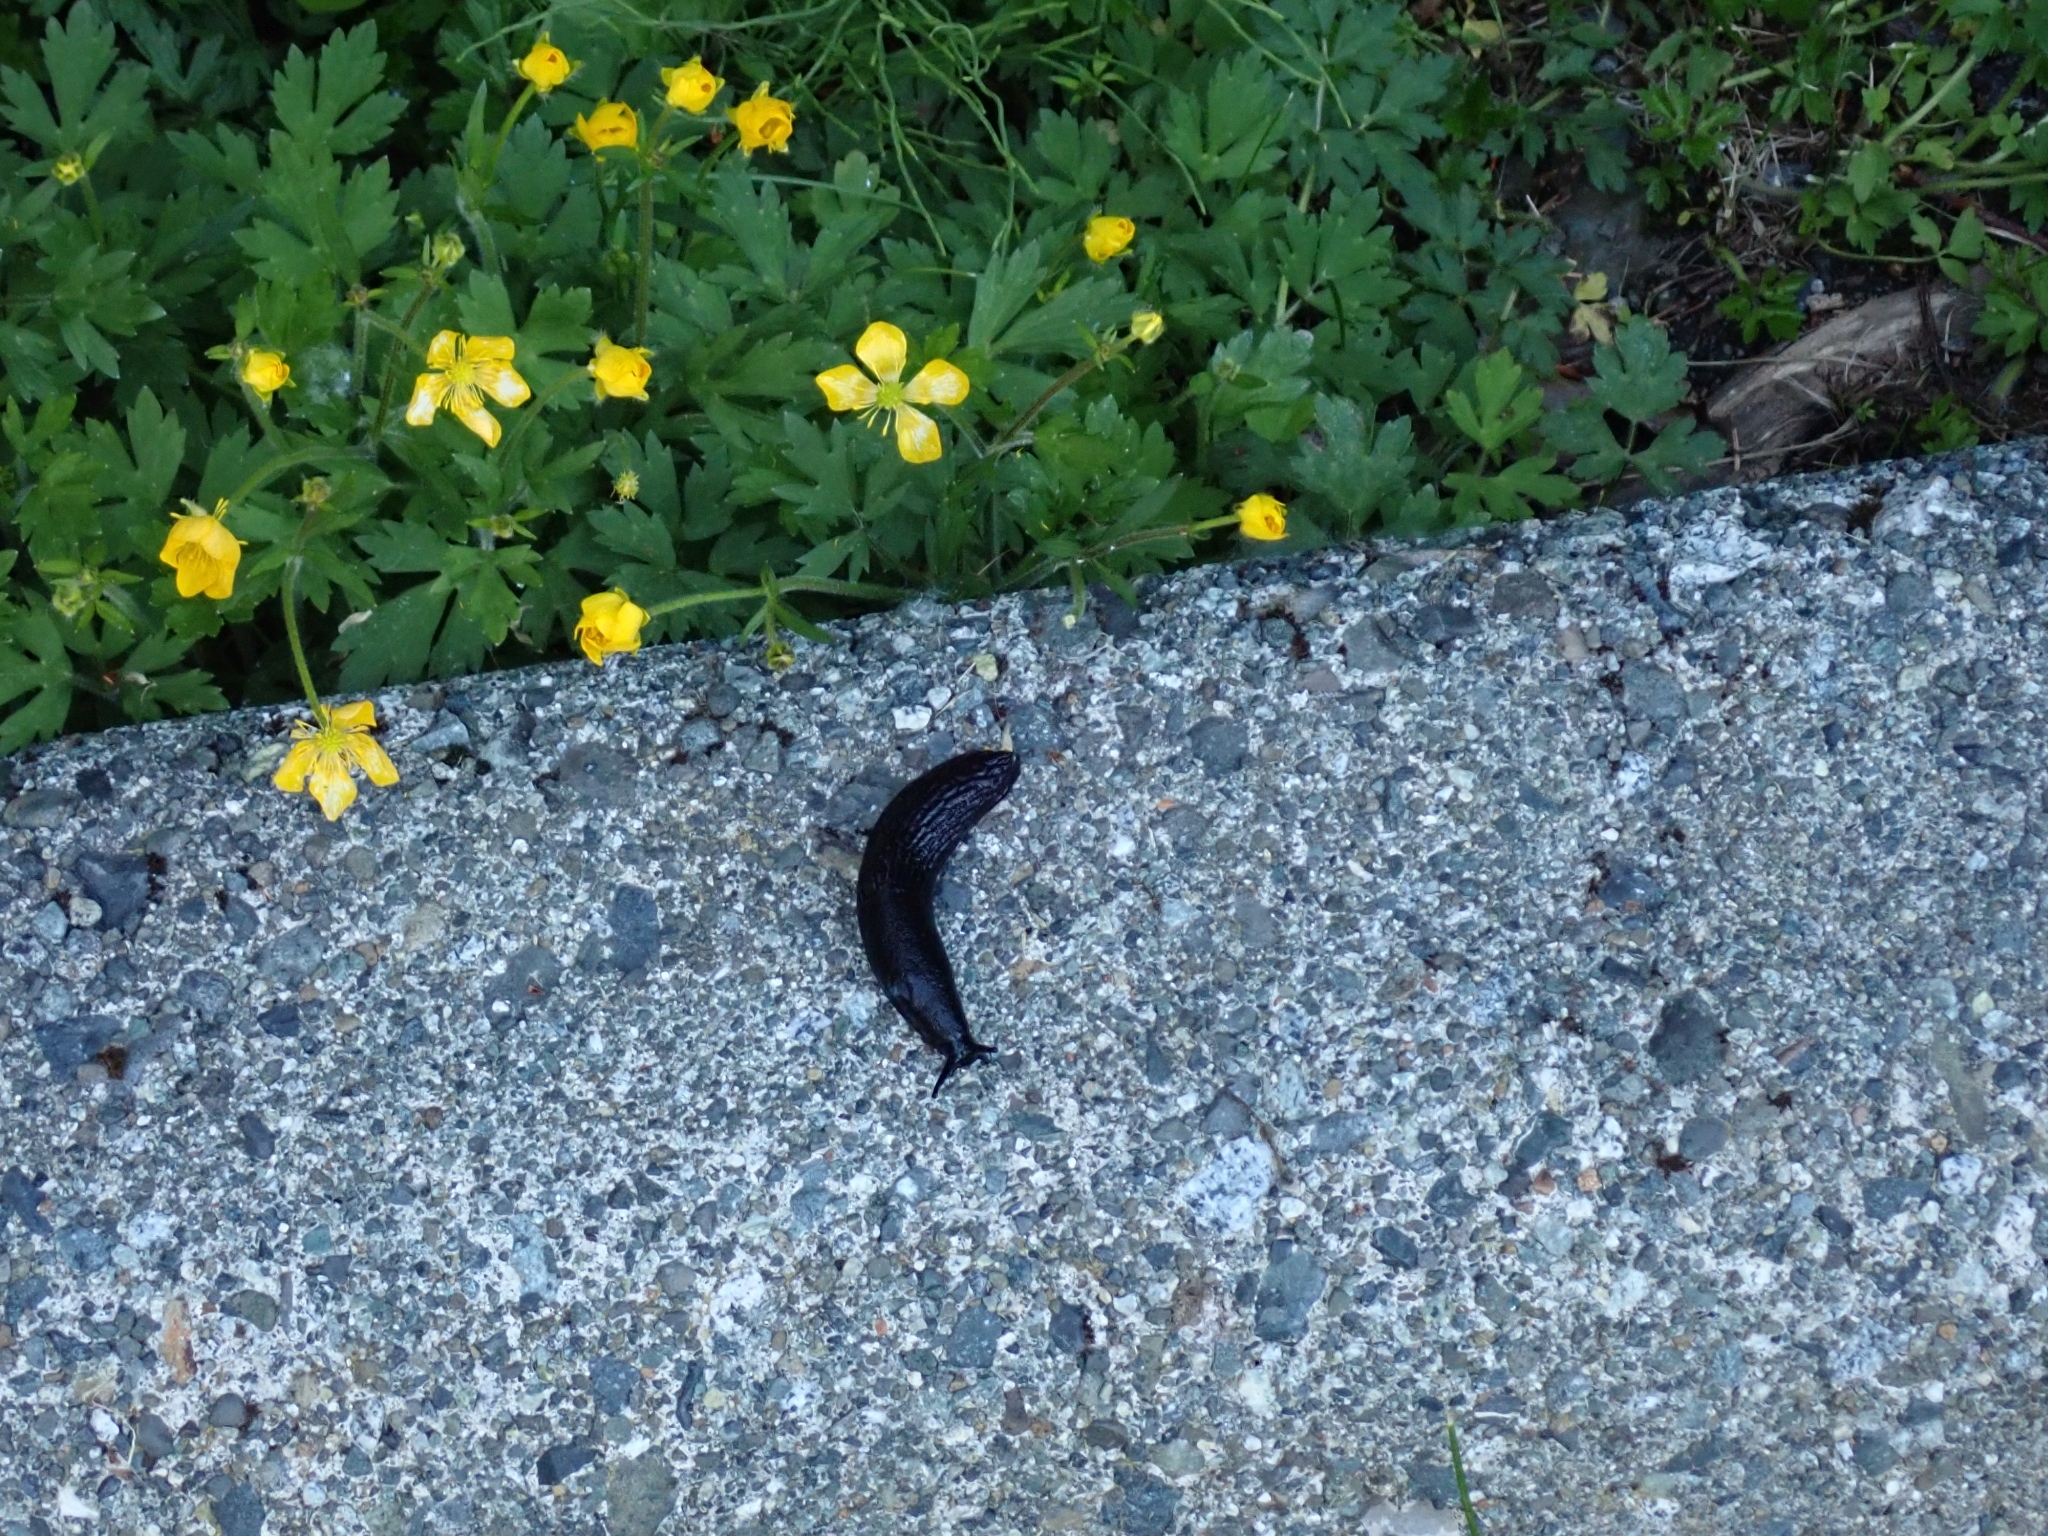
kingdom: Animalia
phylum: Mollusca
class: Gastropoda
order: Stylommatophora
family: Arionidae
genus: Arion
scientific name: Arion
